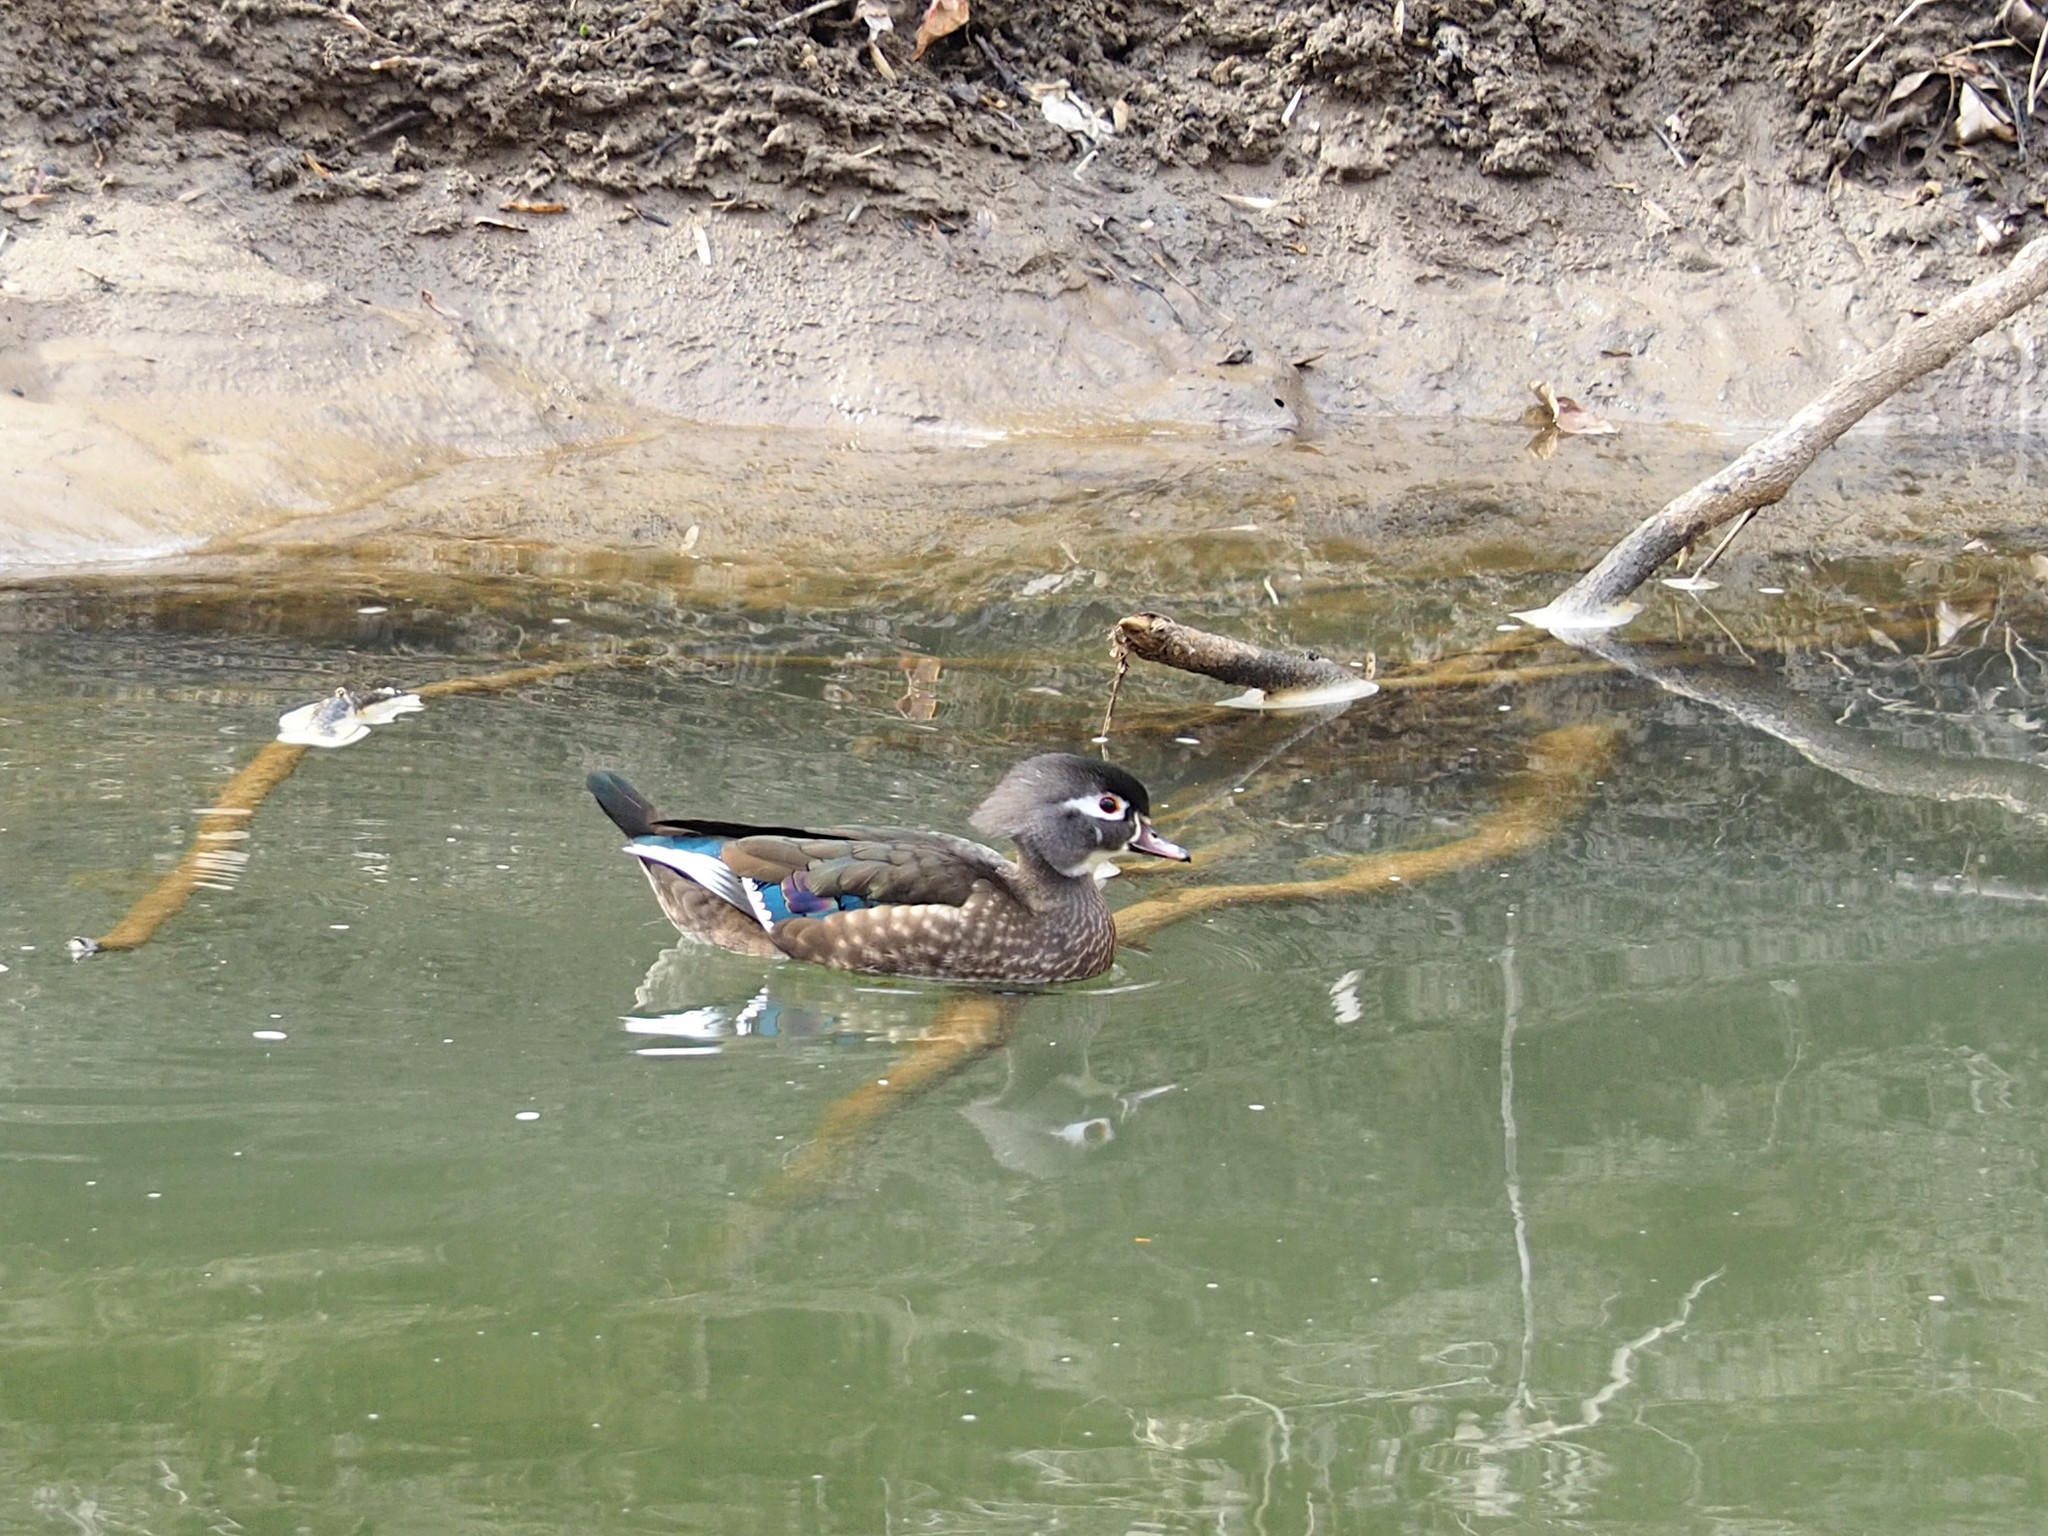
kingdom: Animalia
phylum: Chordata
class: Aves
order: Anseriformes
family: Anatidae
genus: Aix
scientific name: Aix sponsa
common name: Wood duck
